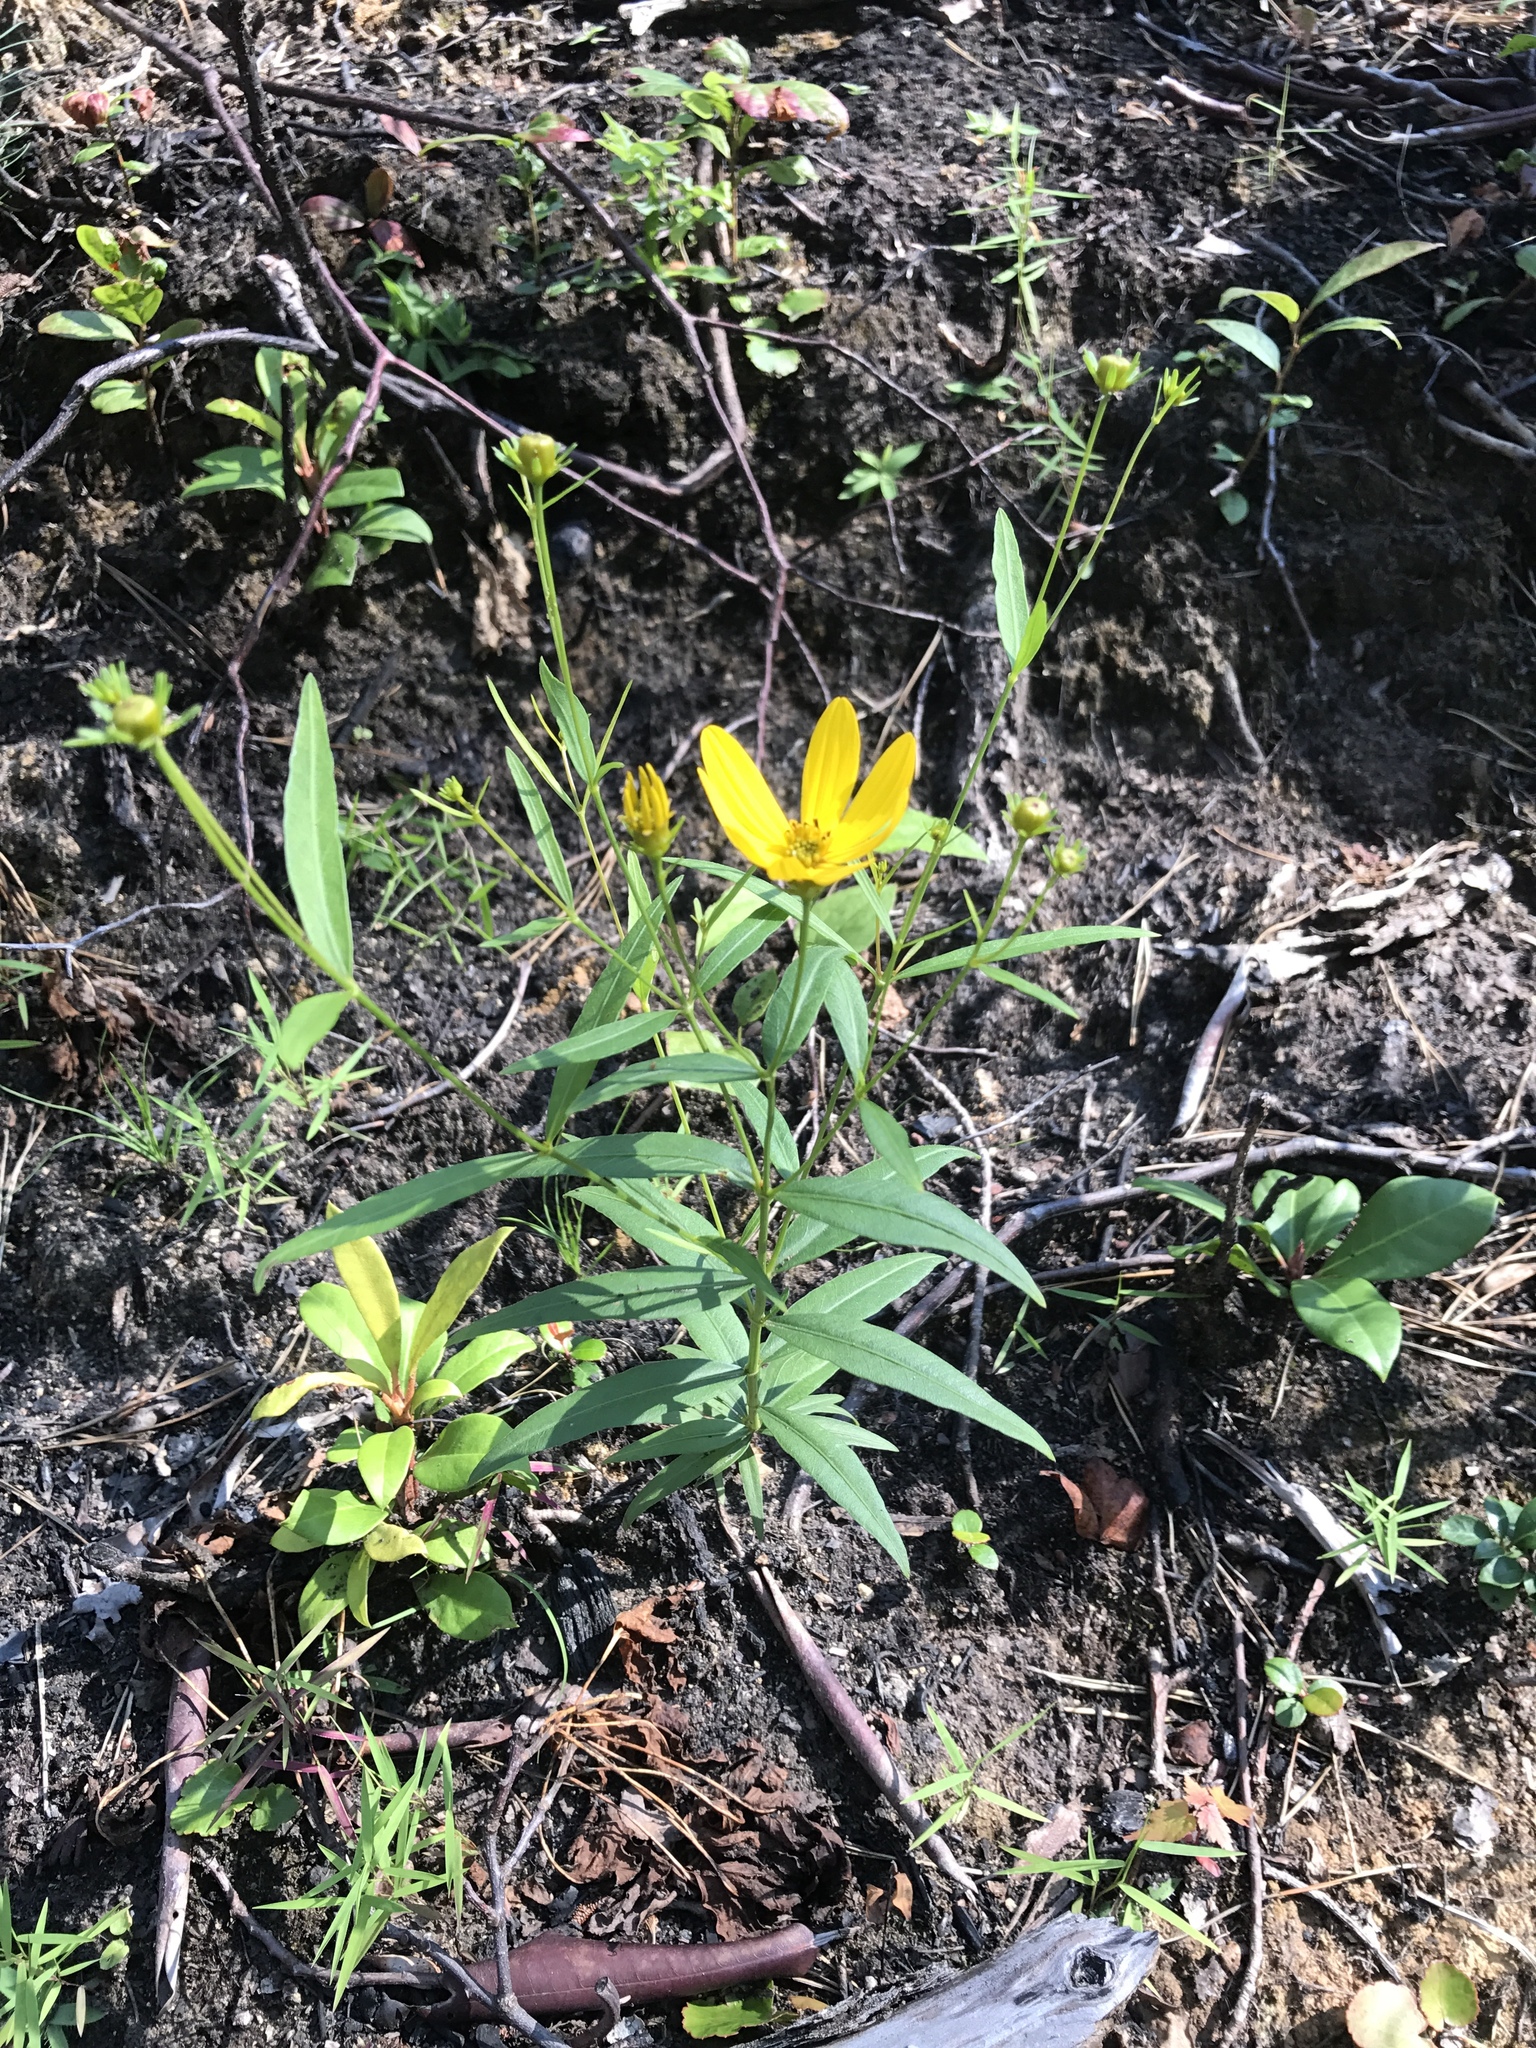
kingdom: Plantae
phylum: Tracheophyta
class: Magnoliopsida
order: Asterales
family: Asteraceae
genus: Coreopsis
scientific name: Coreopsis major
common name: Forest tickseed
